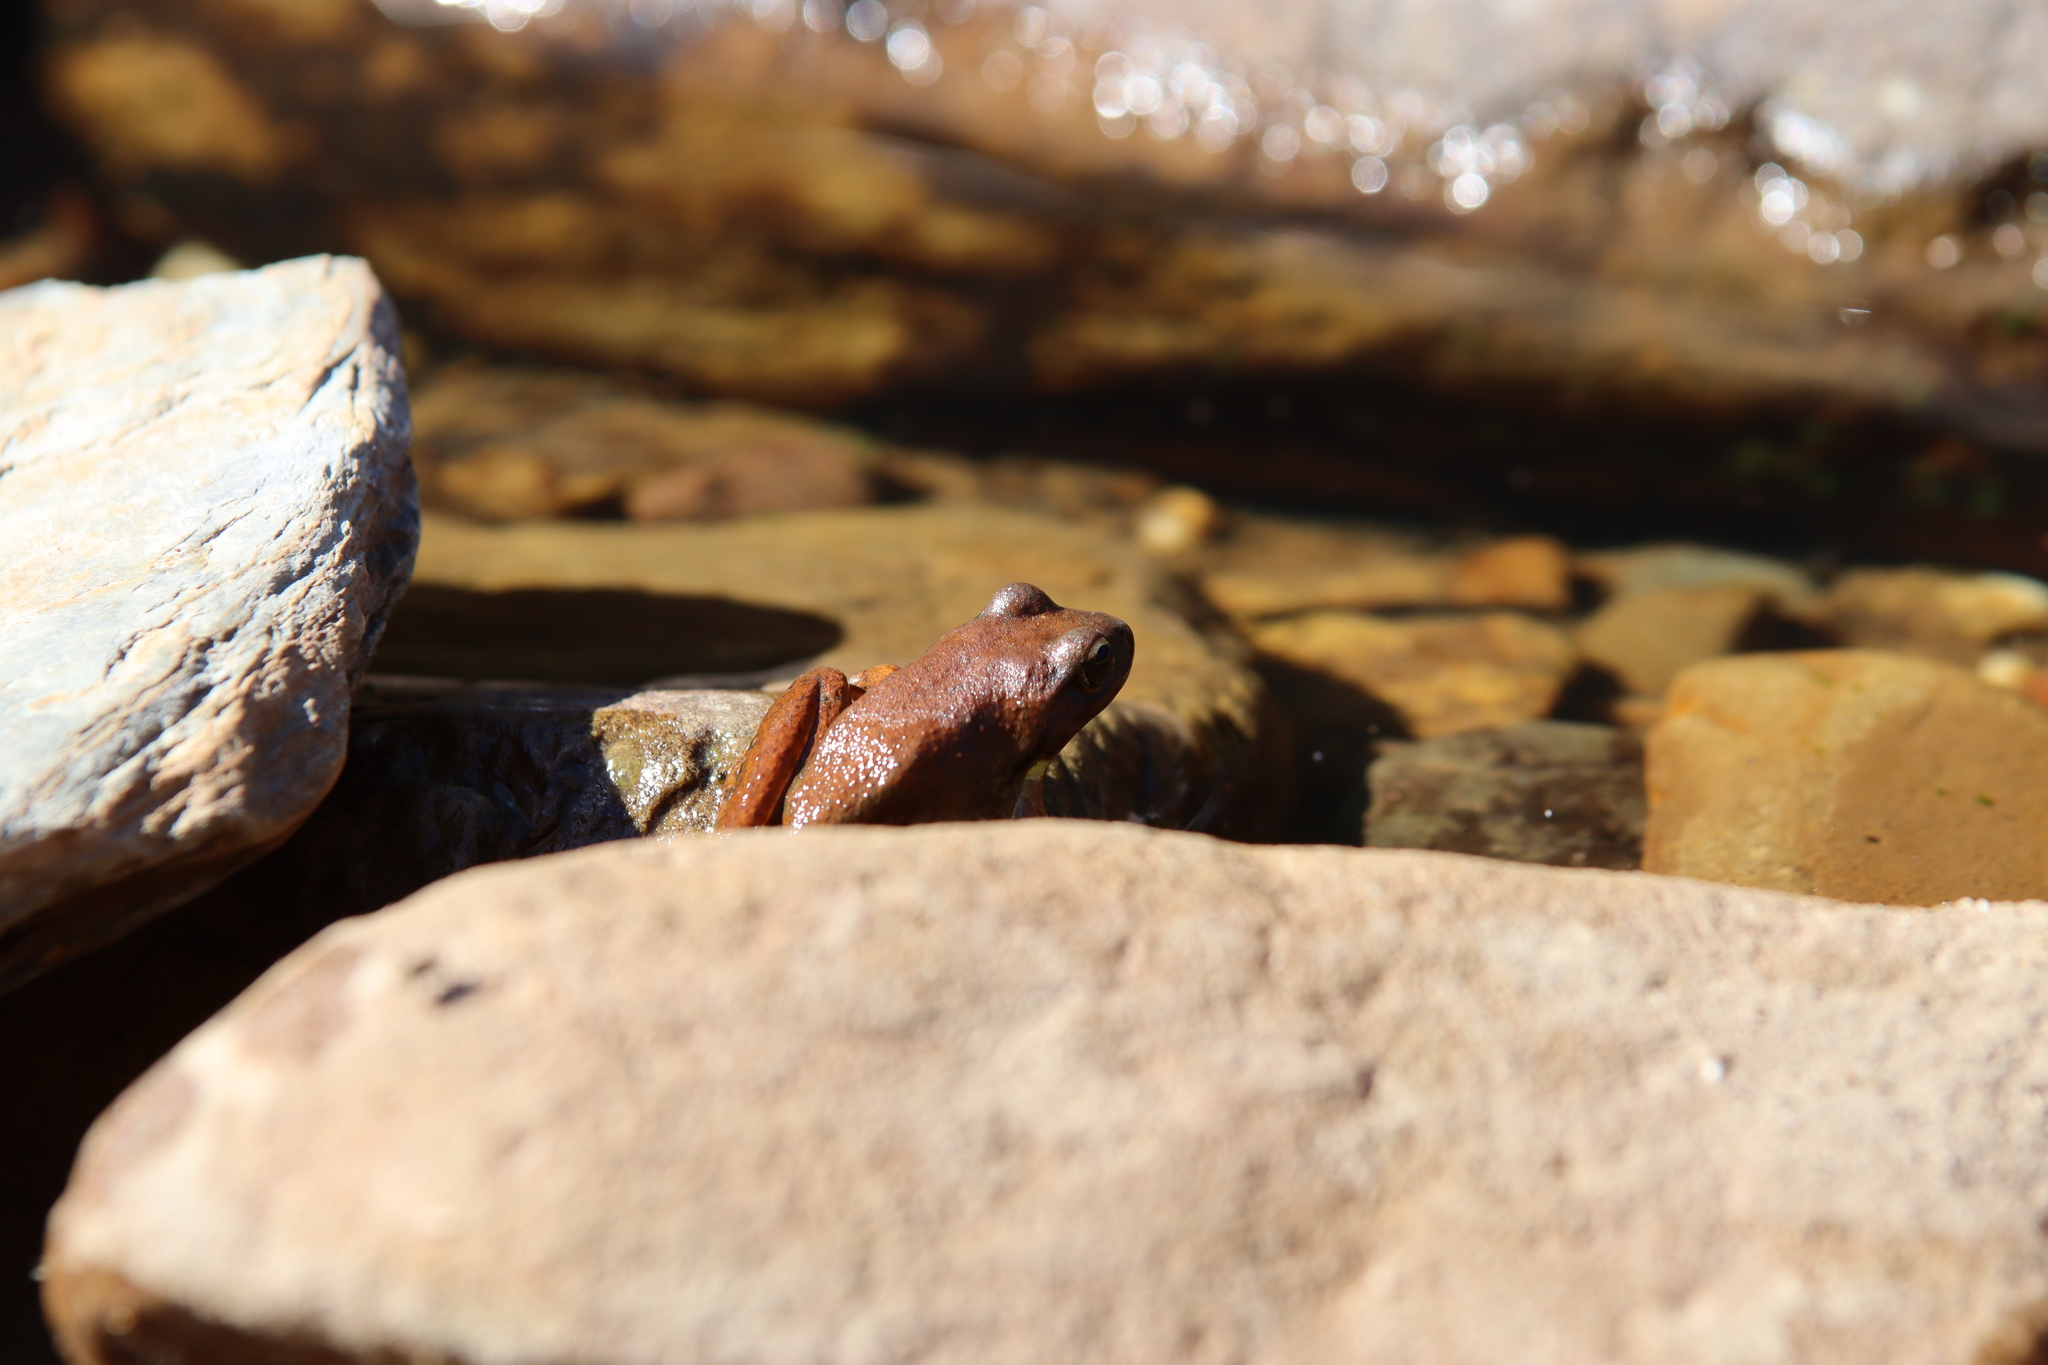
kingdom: Animalia
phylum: Chordata
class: Amphibia
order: Anura
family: Pelodryadidae
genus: Ranoidea
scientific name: Ranoidea lesueurii
